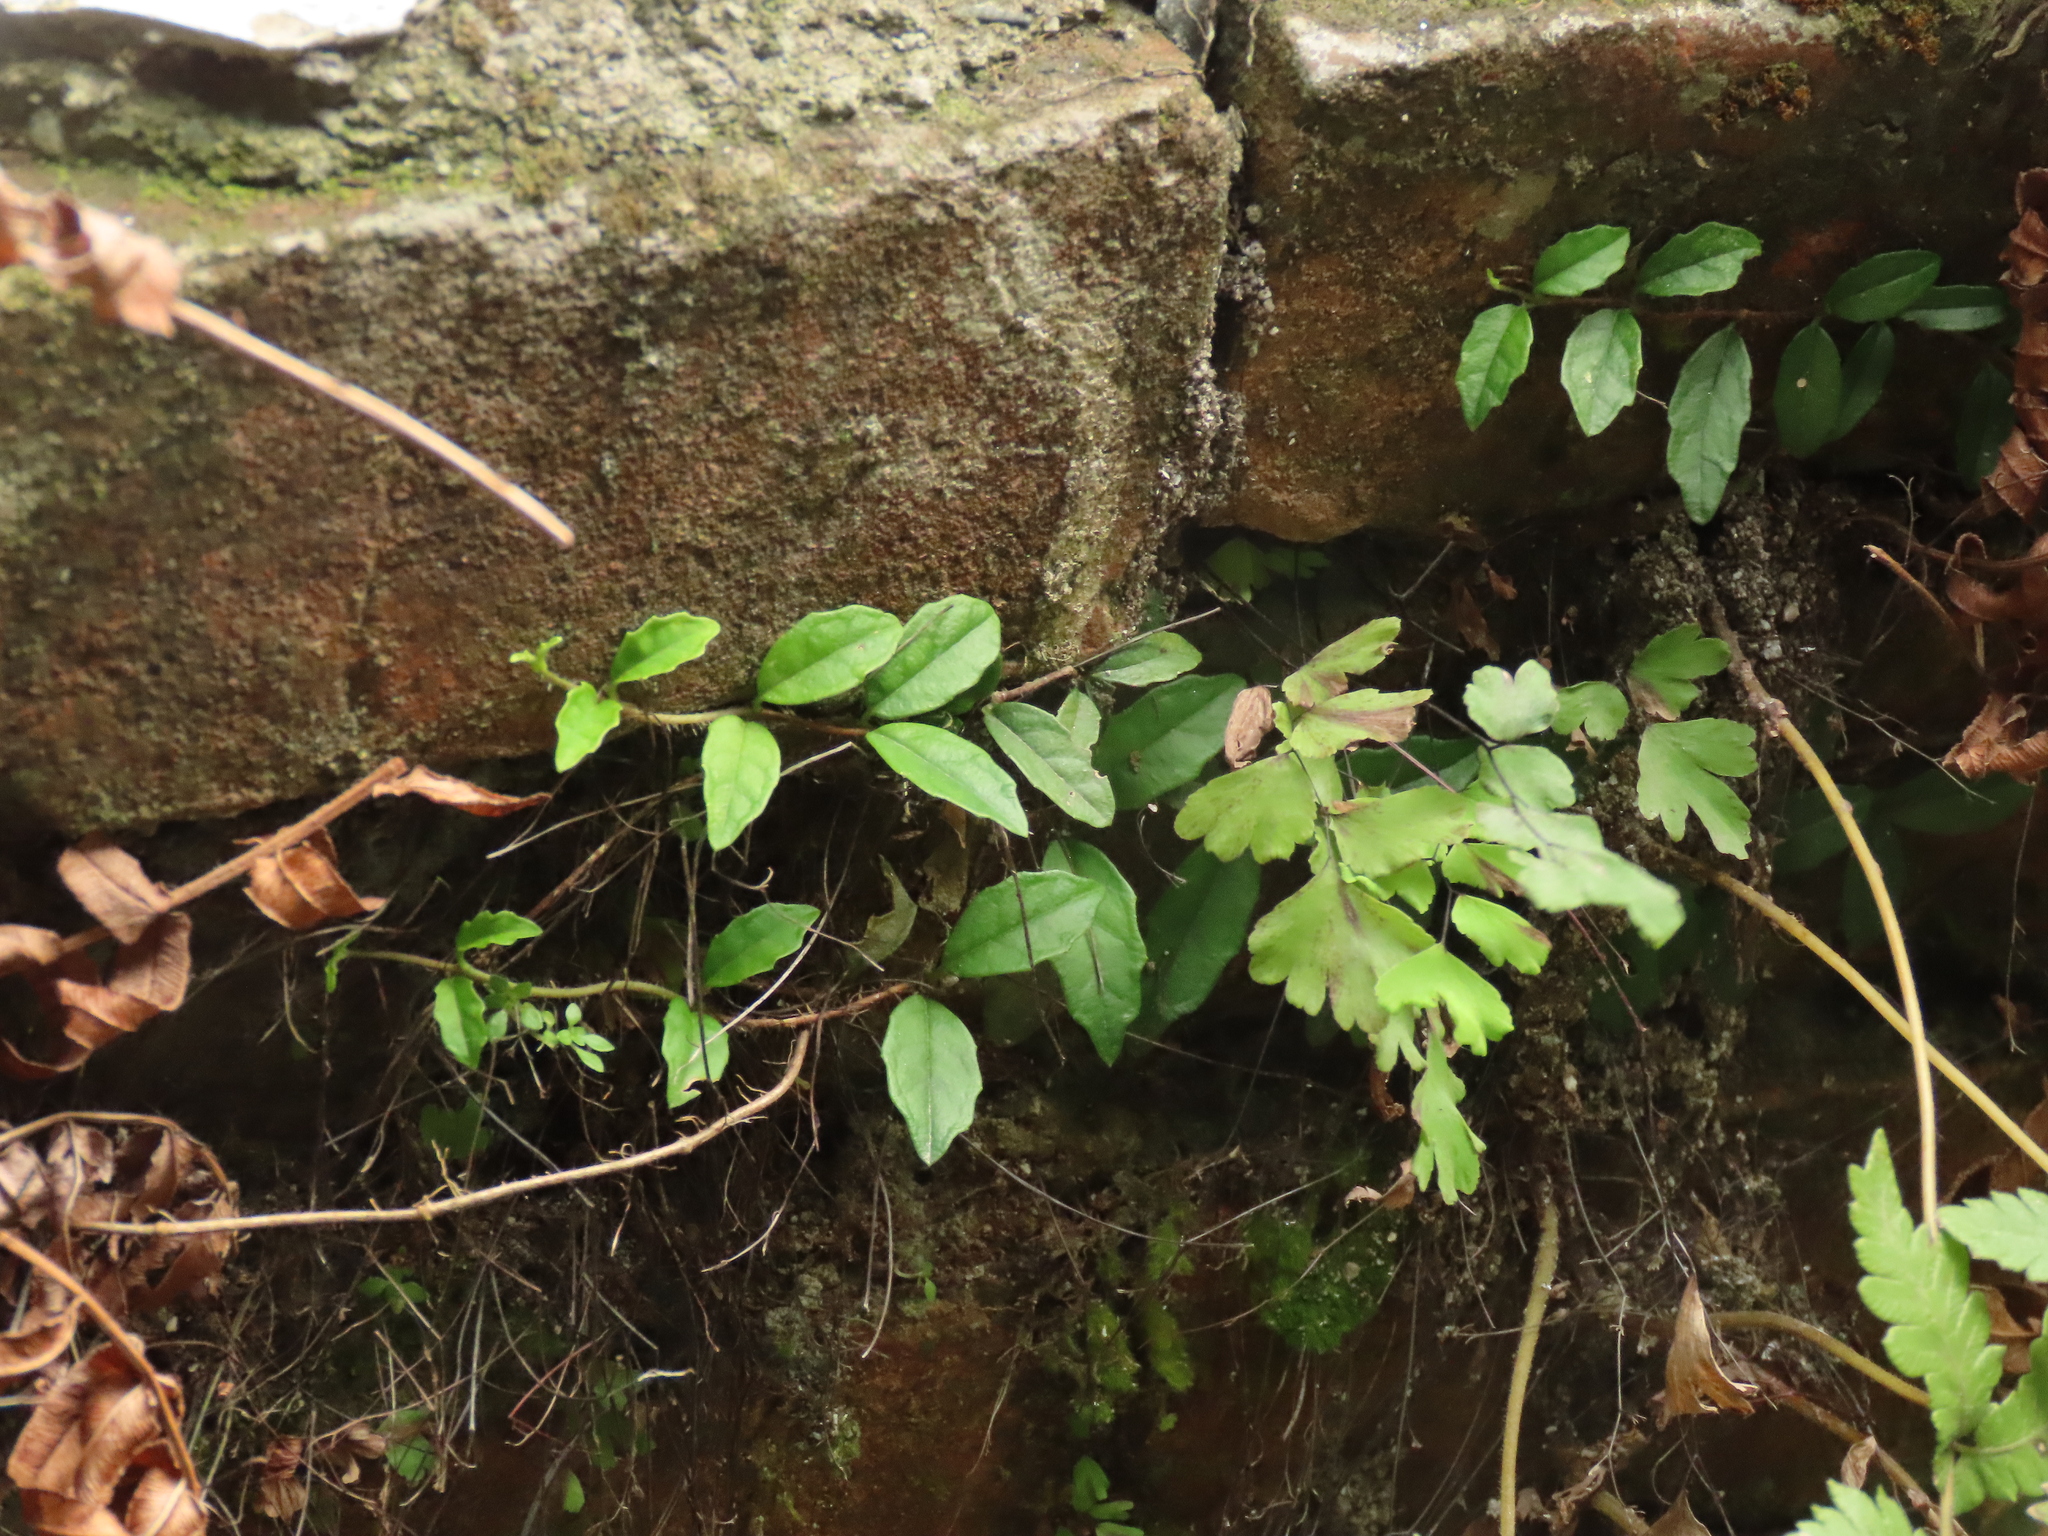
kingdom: Plantae
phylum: Tracheophyta
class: Magnoliopsida
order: Cornales
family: Hydrangeaceae
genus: Hydrangea
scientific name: Hydrangea viburnoides
